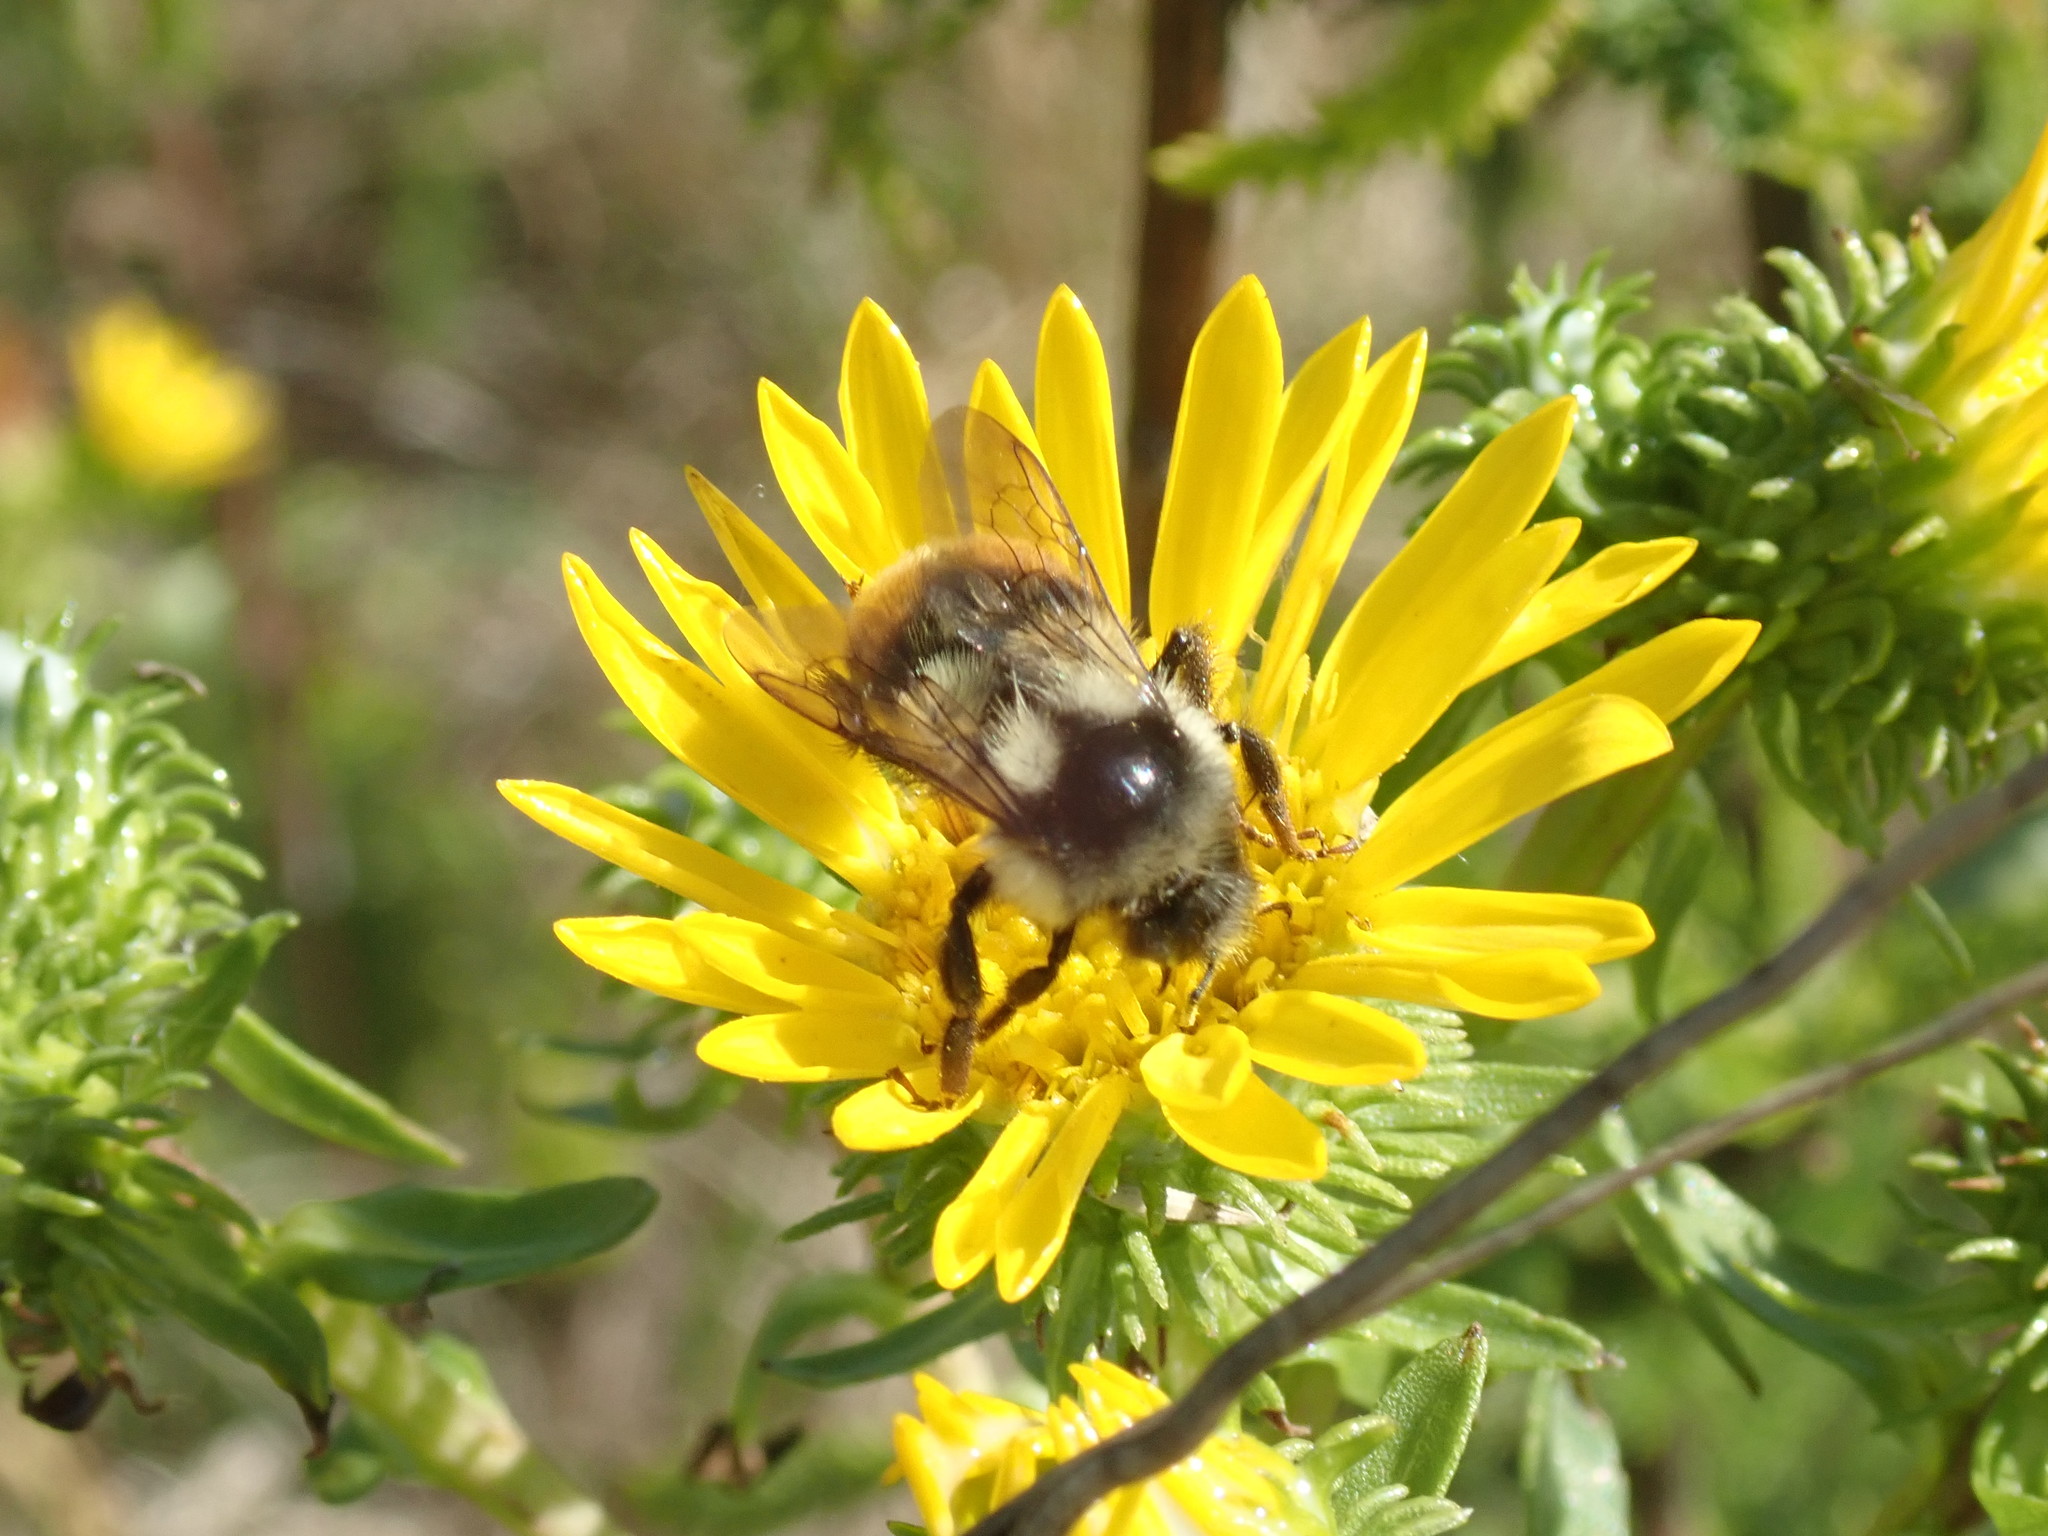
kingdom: Animalia
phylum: Arthropoda
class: Insecta
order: Hymenoptera
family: Apidae
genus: Bombus
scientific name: Bombus vancouverensis
